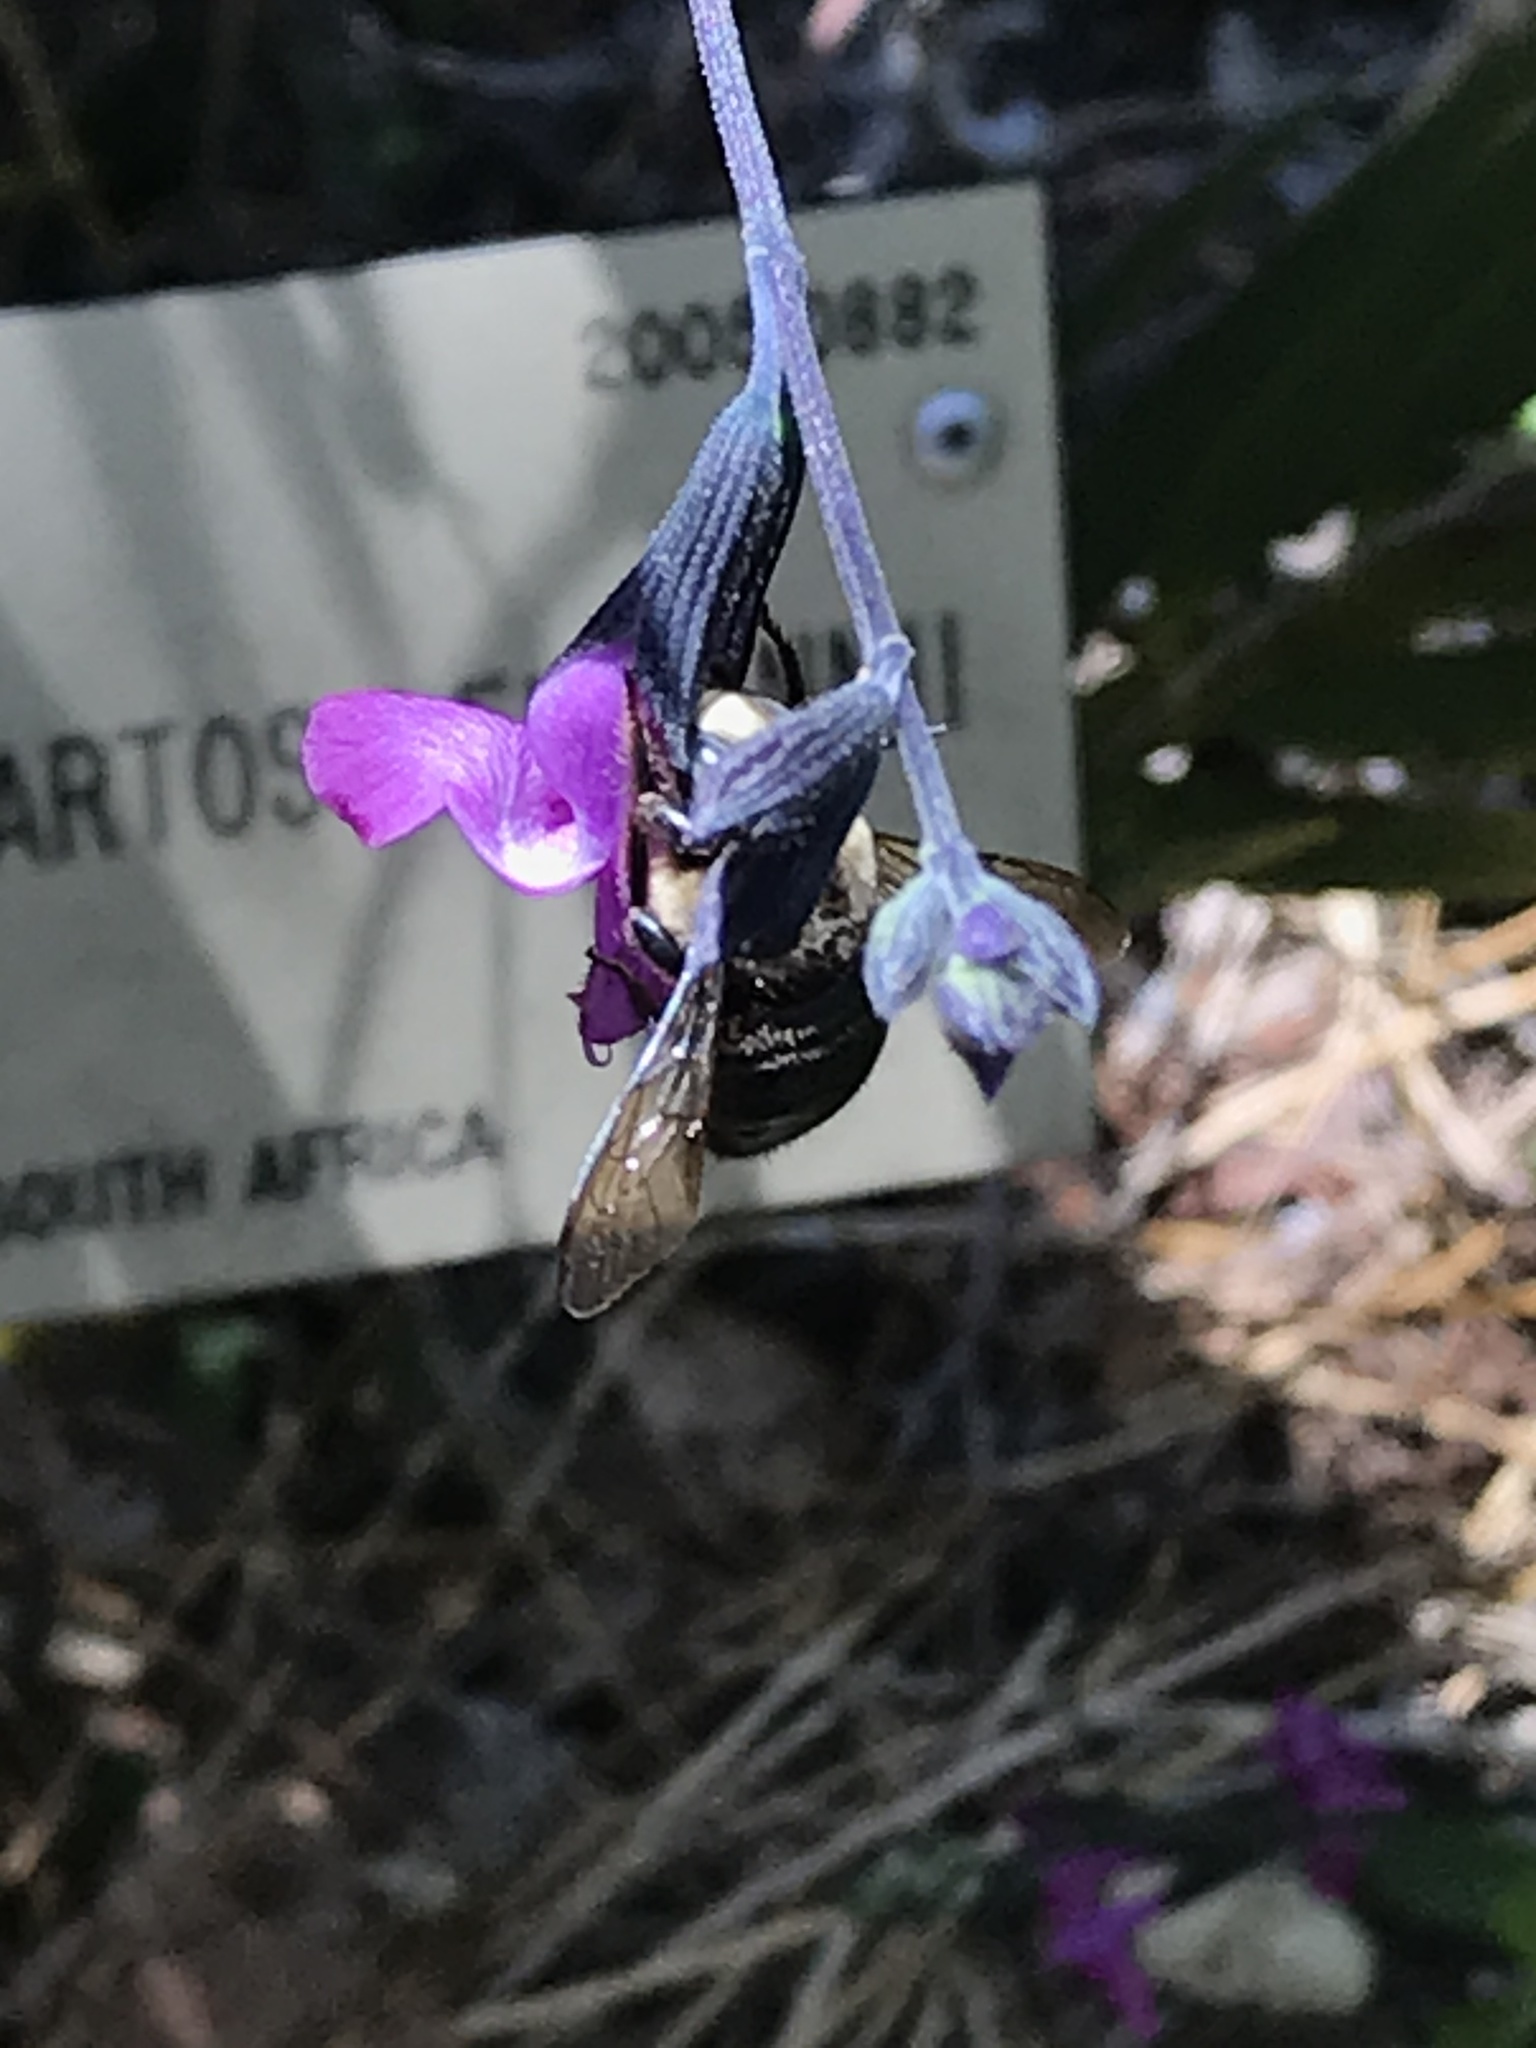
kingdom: Animalia
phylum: Arthropoda
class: Insecta
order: Hymenoptera
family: Apidae
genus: Xylocopa
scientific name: Xylocopa tabaniformis
